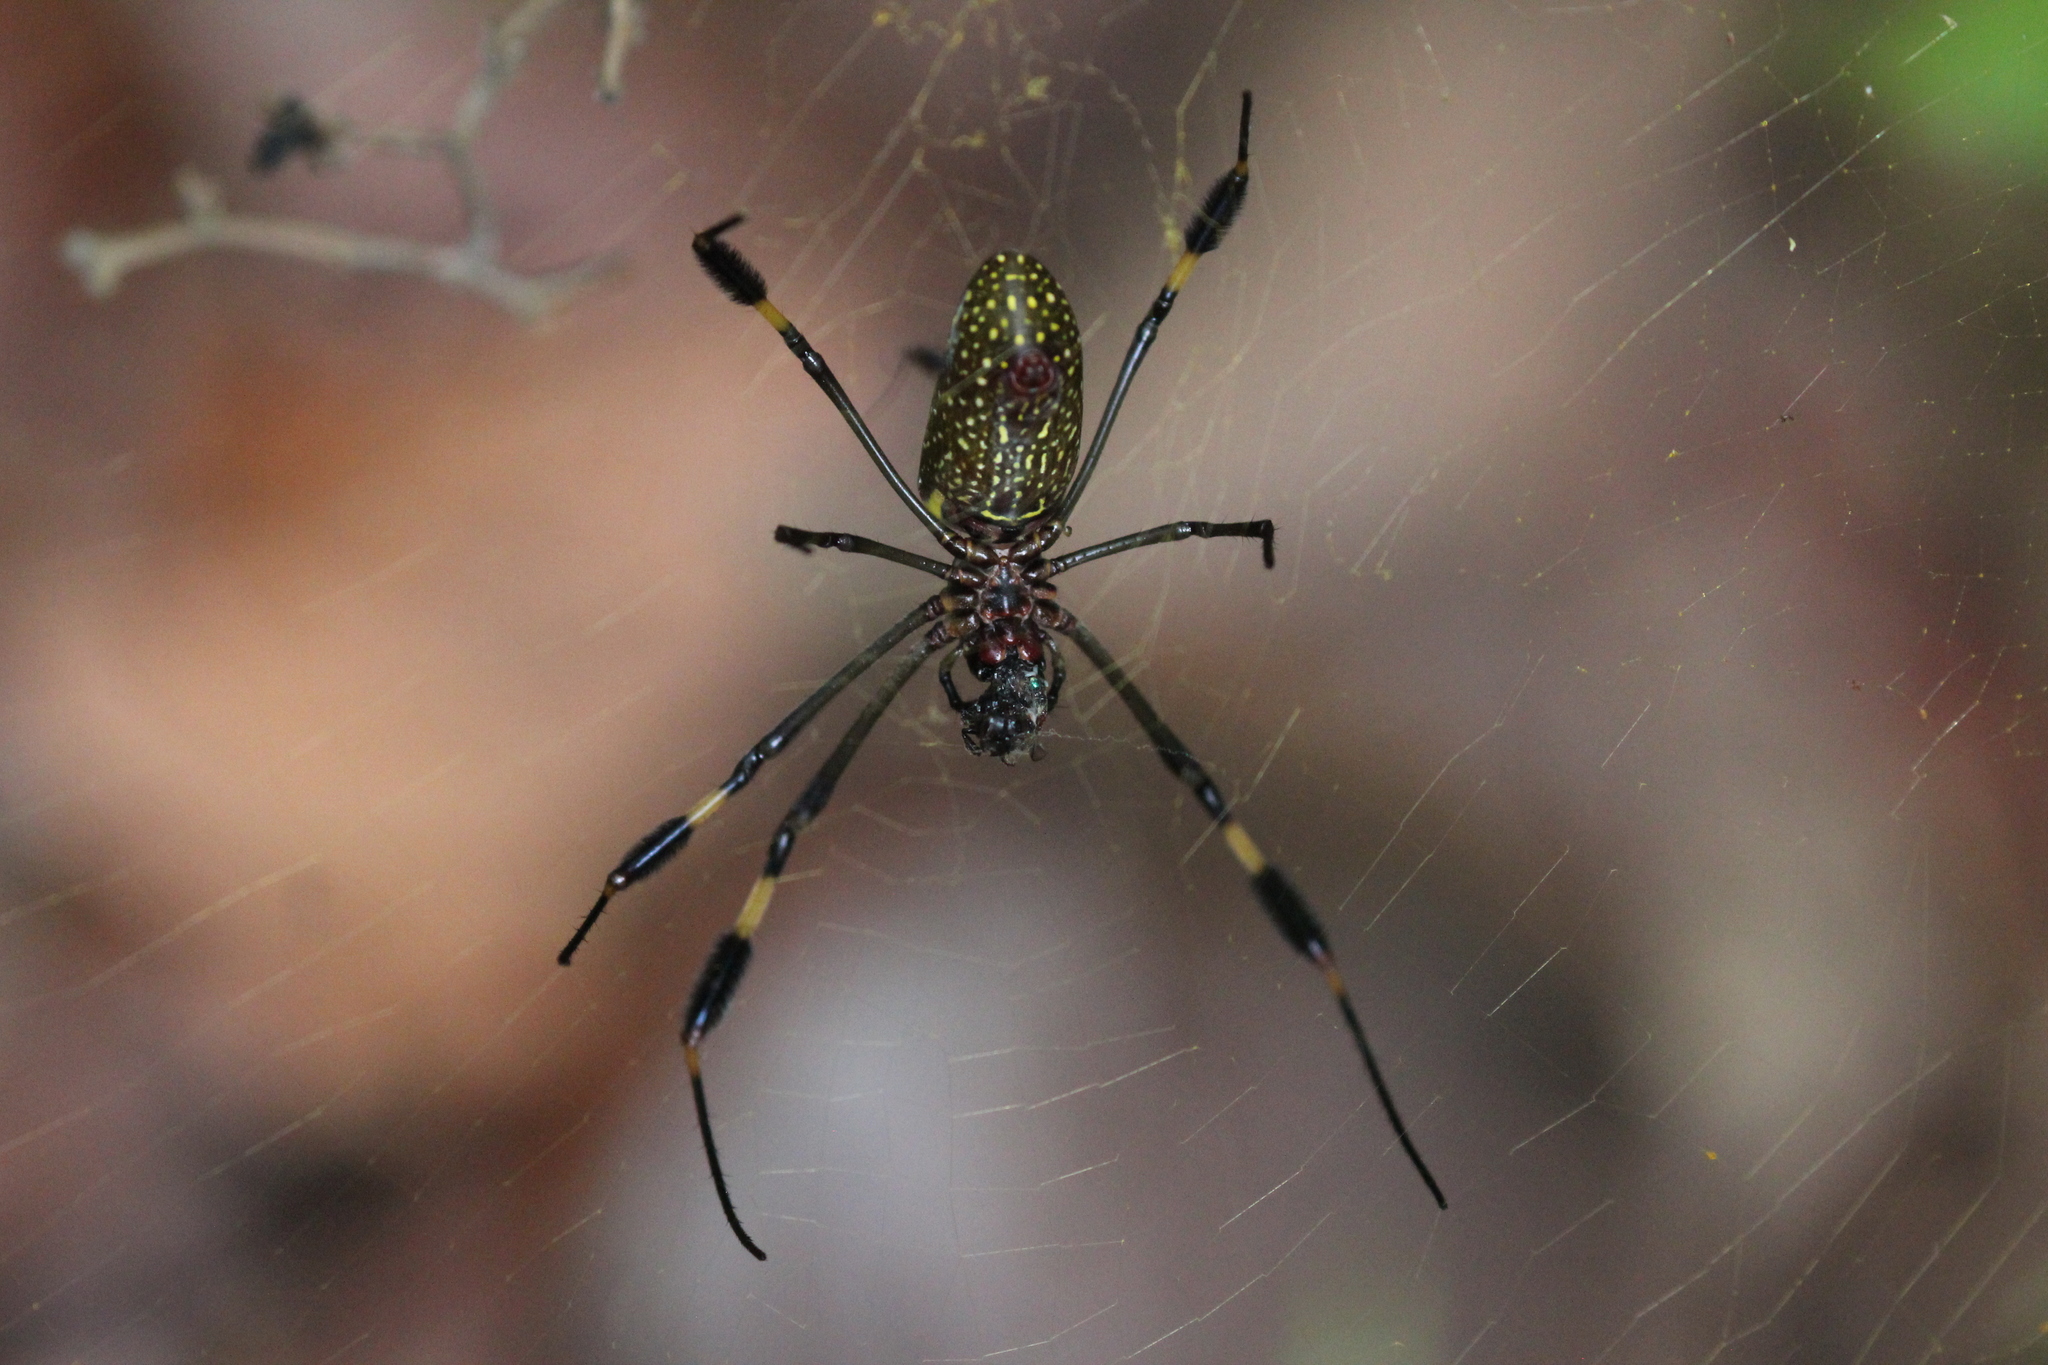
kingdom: Animalia
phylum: Arthropoda
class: Arachnida
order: Araneae
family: Araneidae
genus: Trichonephila
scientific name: Trichonephila clavipes
